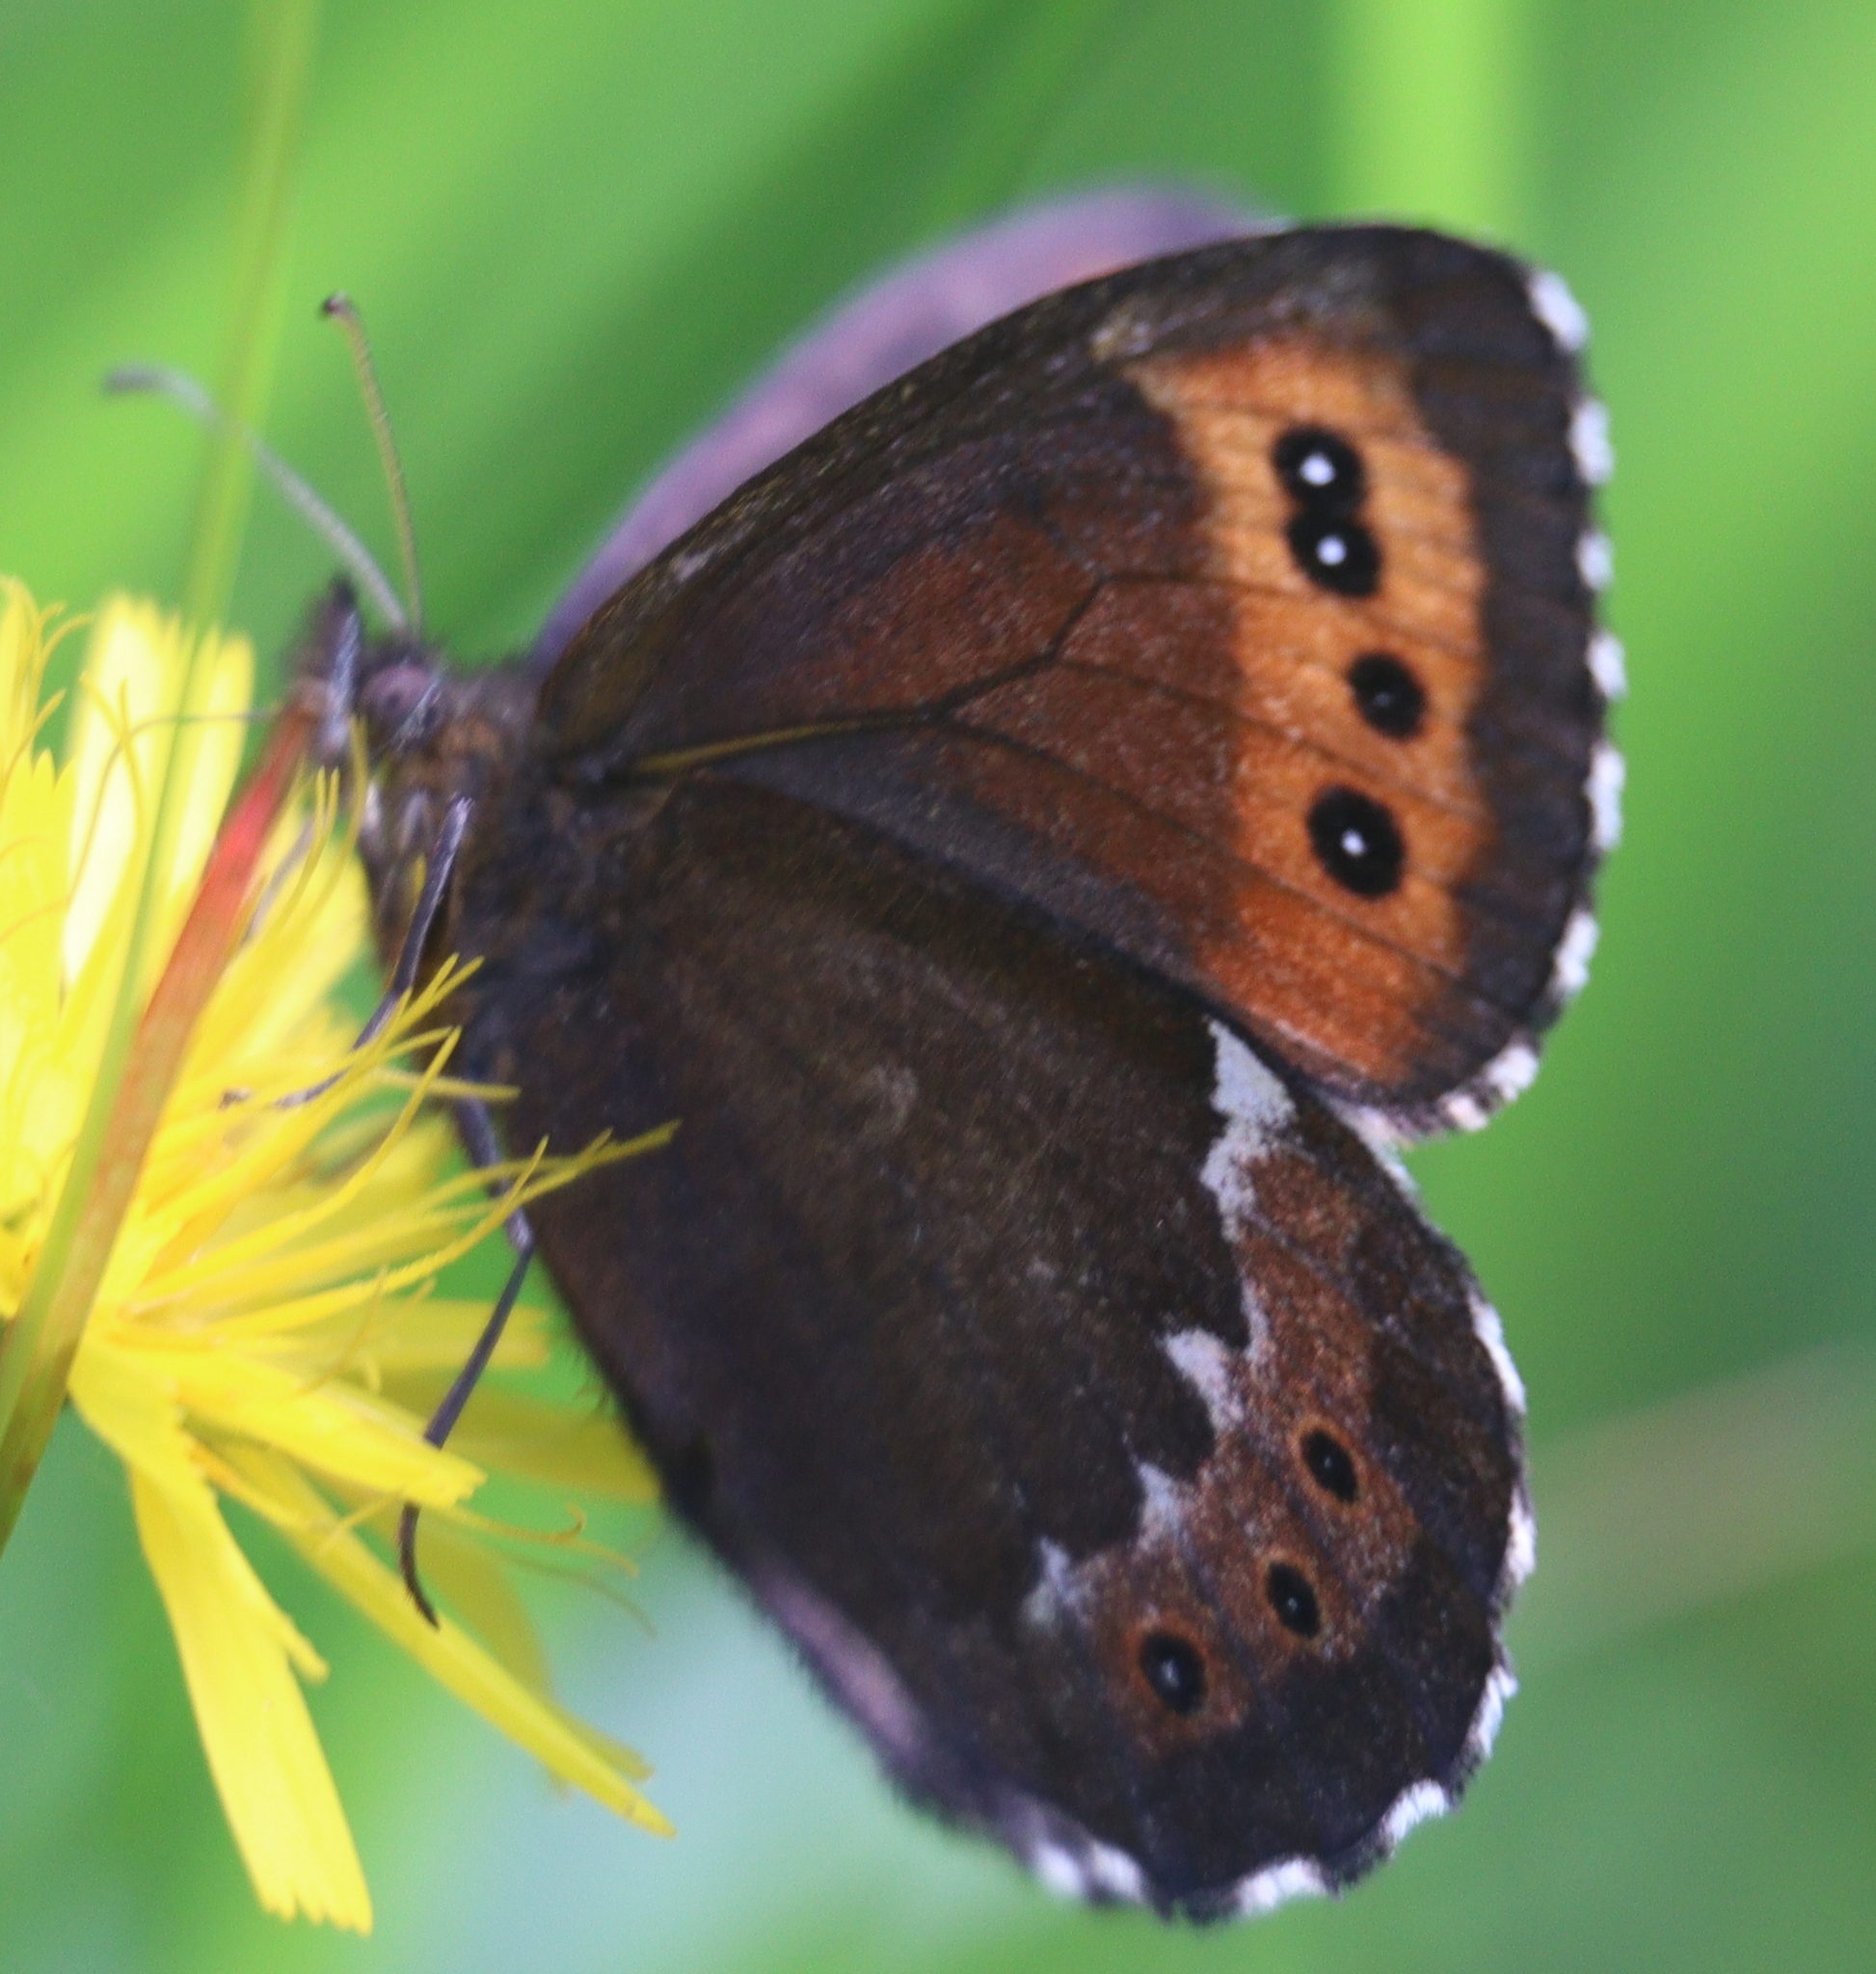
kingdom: Animalia
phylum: Arthropoda
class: Insecta
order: Lepidoptera
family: Nymphalidae
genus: Erebia
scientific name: Erebia ligea
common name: Arran brown
